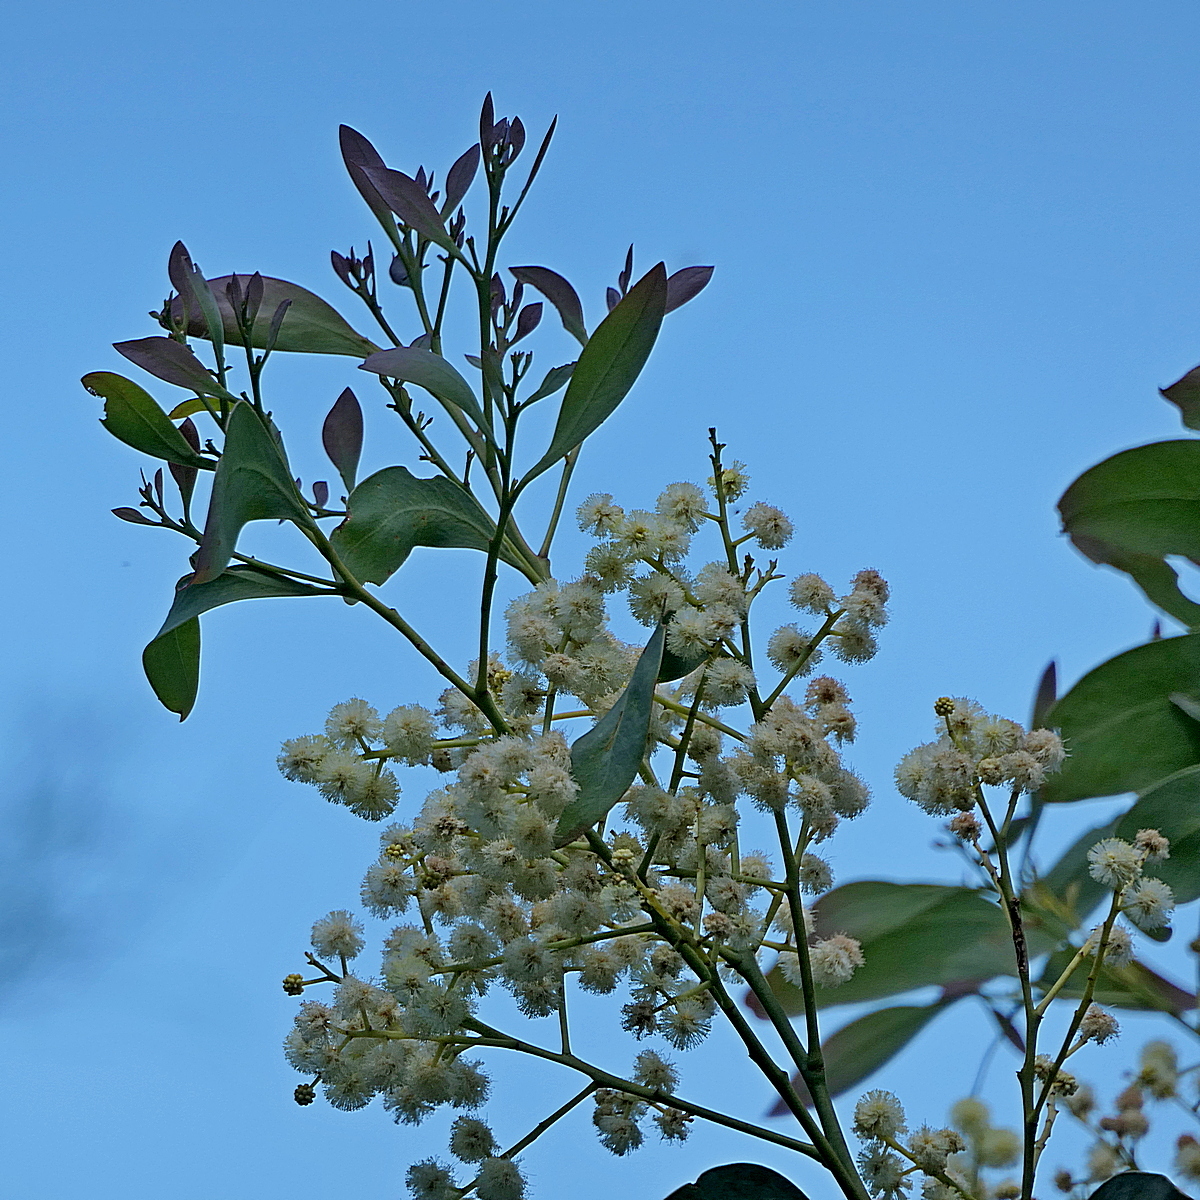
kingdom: Plantae
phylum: Tracheophyta
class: Magnoliopsida
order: Fabales
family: Fabaceae
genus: Acacia
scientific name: Acacia falciformis
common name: Tanning wattle
